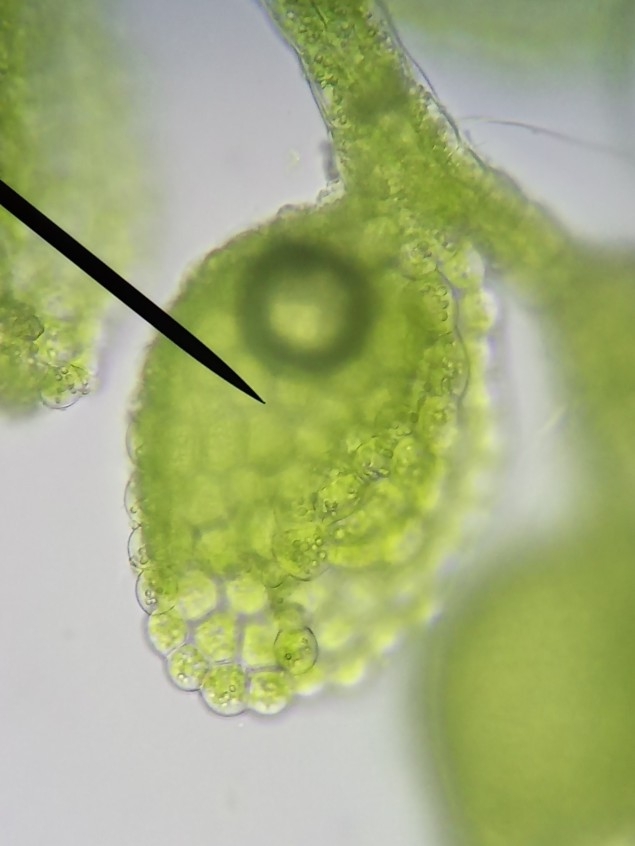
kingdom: Plantae
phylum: Marchantiophyta
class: Jungermanniopsida
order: Porellales
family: Lejeuneaceae
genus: Myriocoleopsis
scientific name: Myriocoleopsis minutissima
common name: Minute pouncewort
